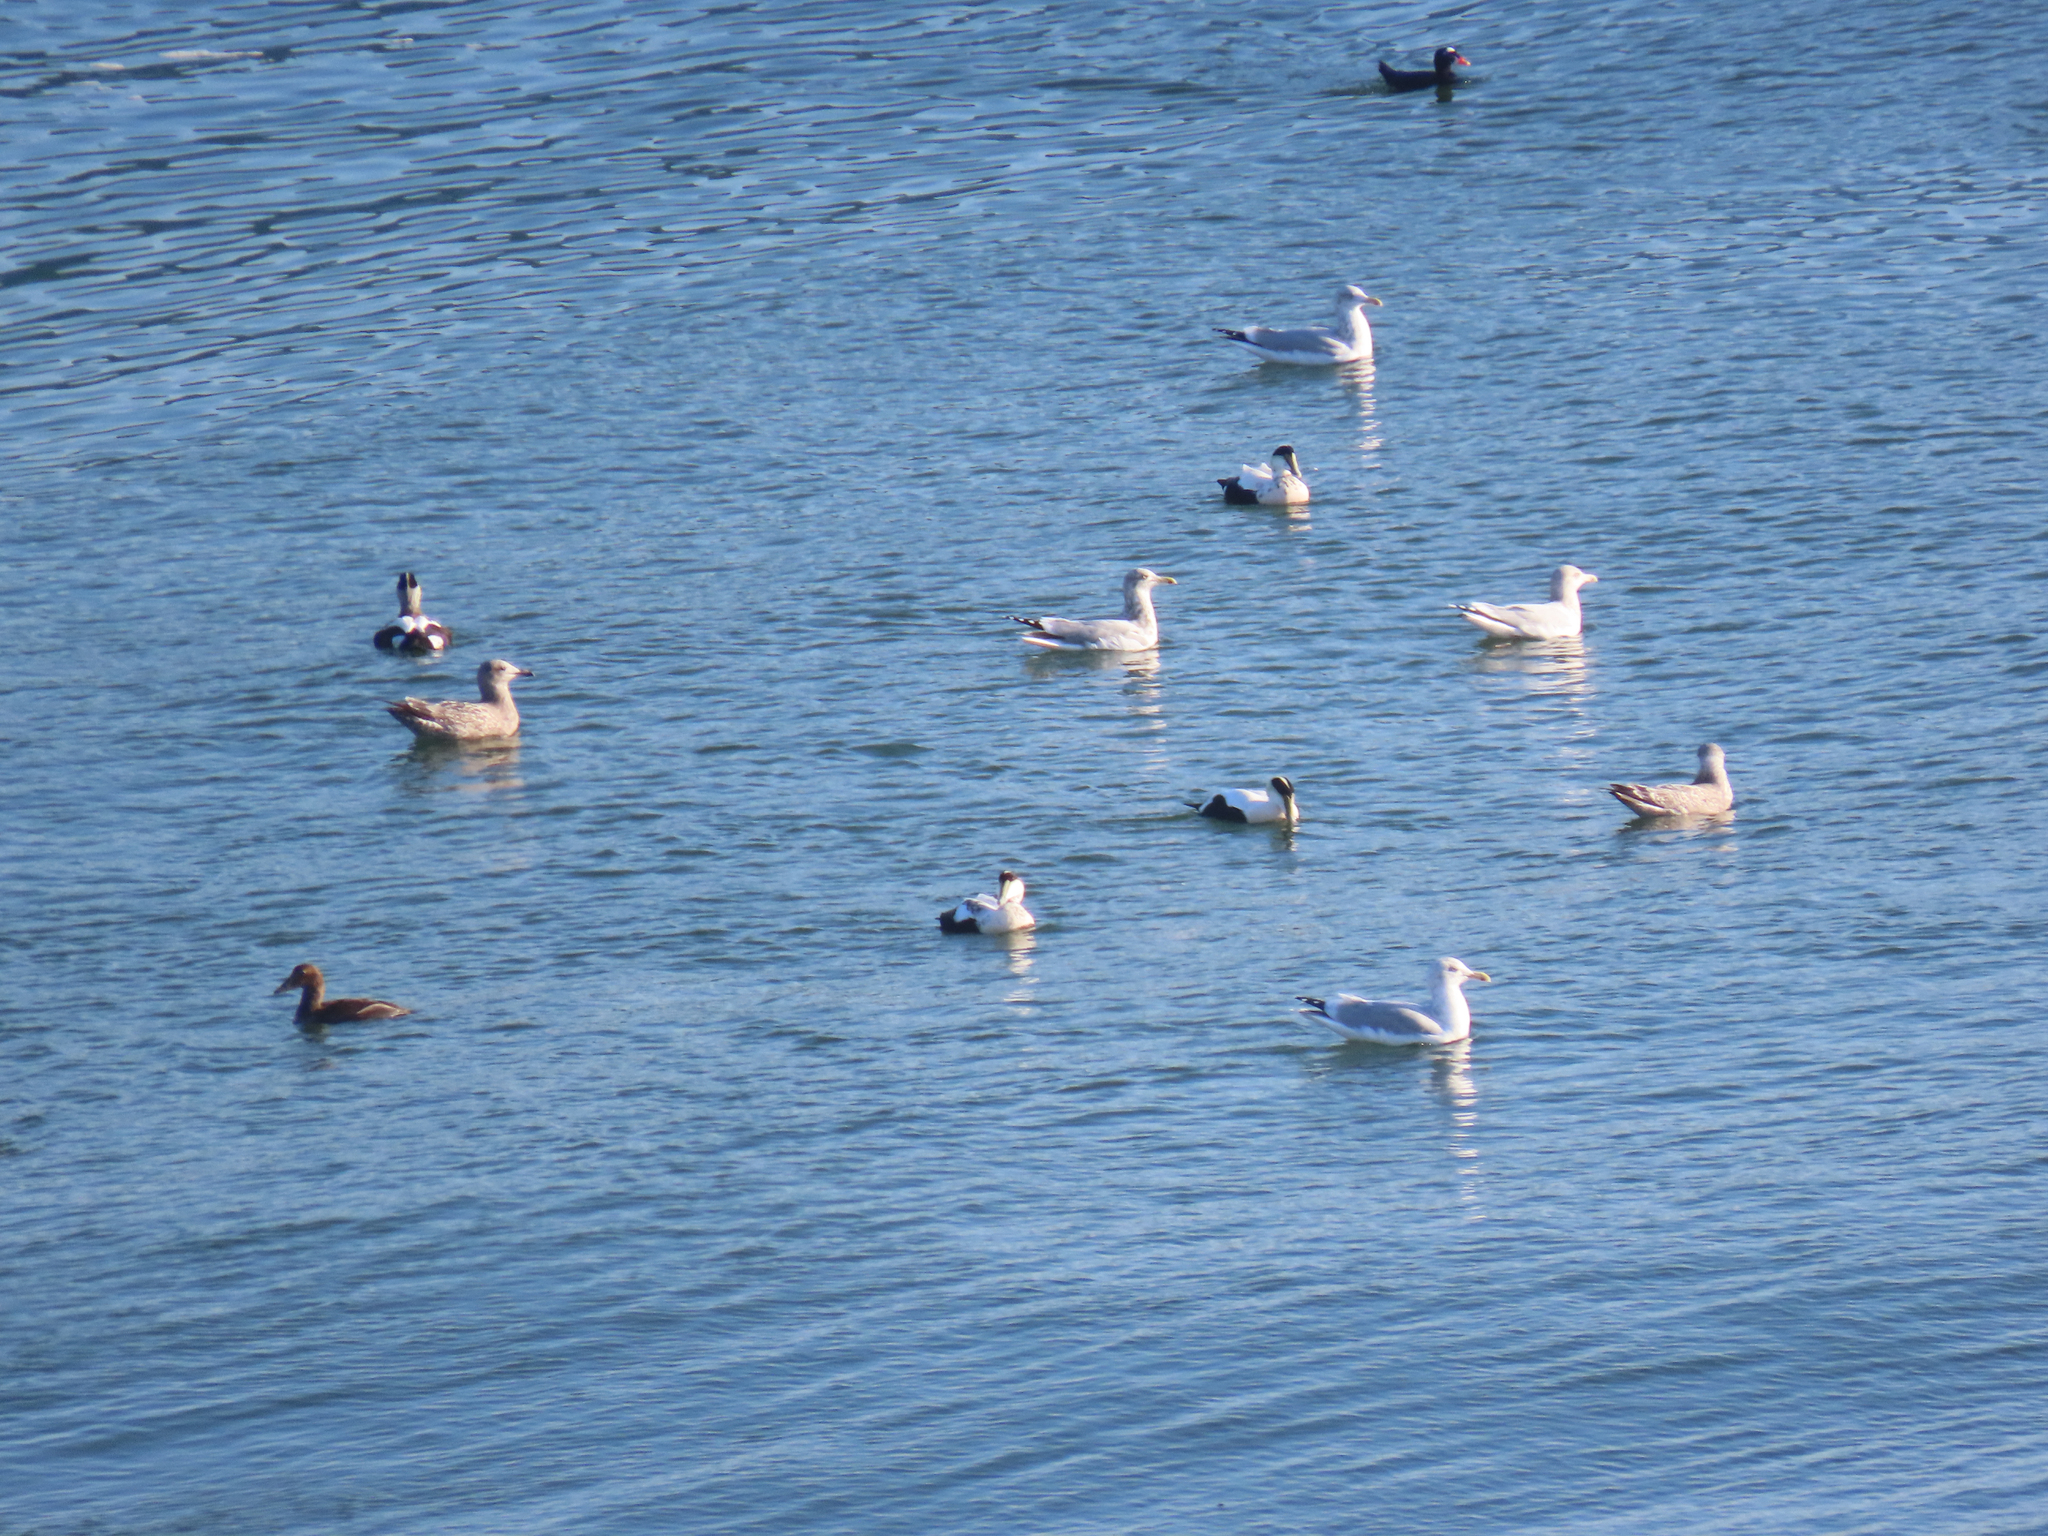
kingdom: Animalia
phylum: Chordata
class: Aves
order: Anseriformes
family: Anatidae
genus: Somateria
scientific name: Somateria mollissima
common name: Common eider
